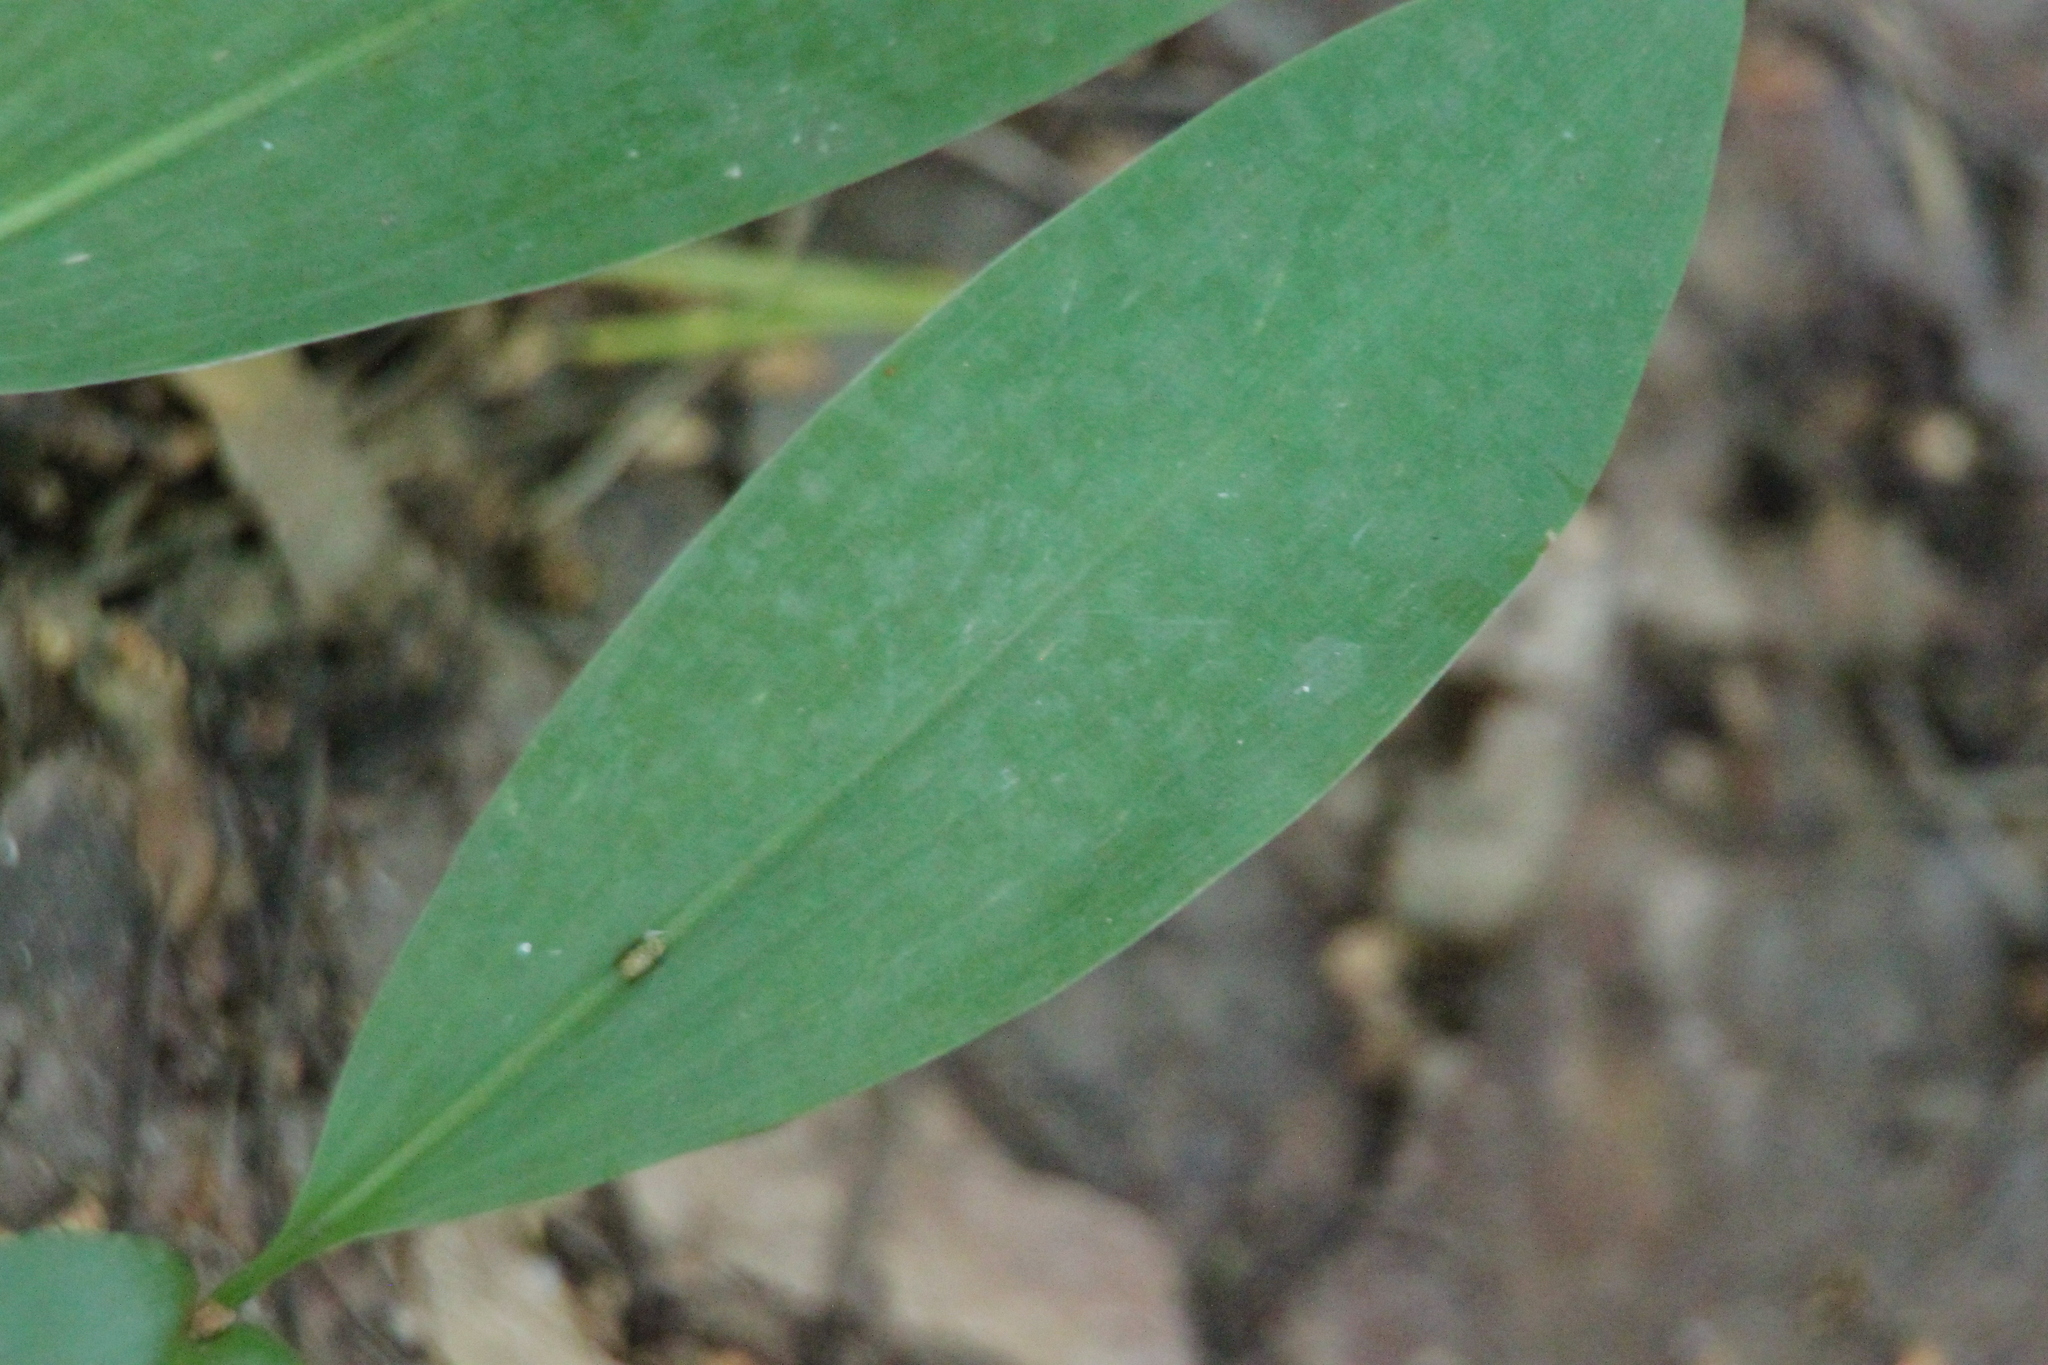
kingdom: Plantae
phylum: Tracheophyta
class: Liliopsida
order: Asparagales
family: Asparagaceae
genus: Convallaria
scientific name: Convallaria majalis
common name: Lily-of-the-valley
